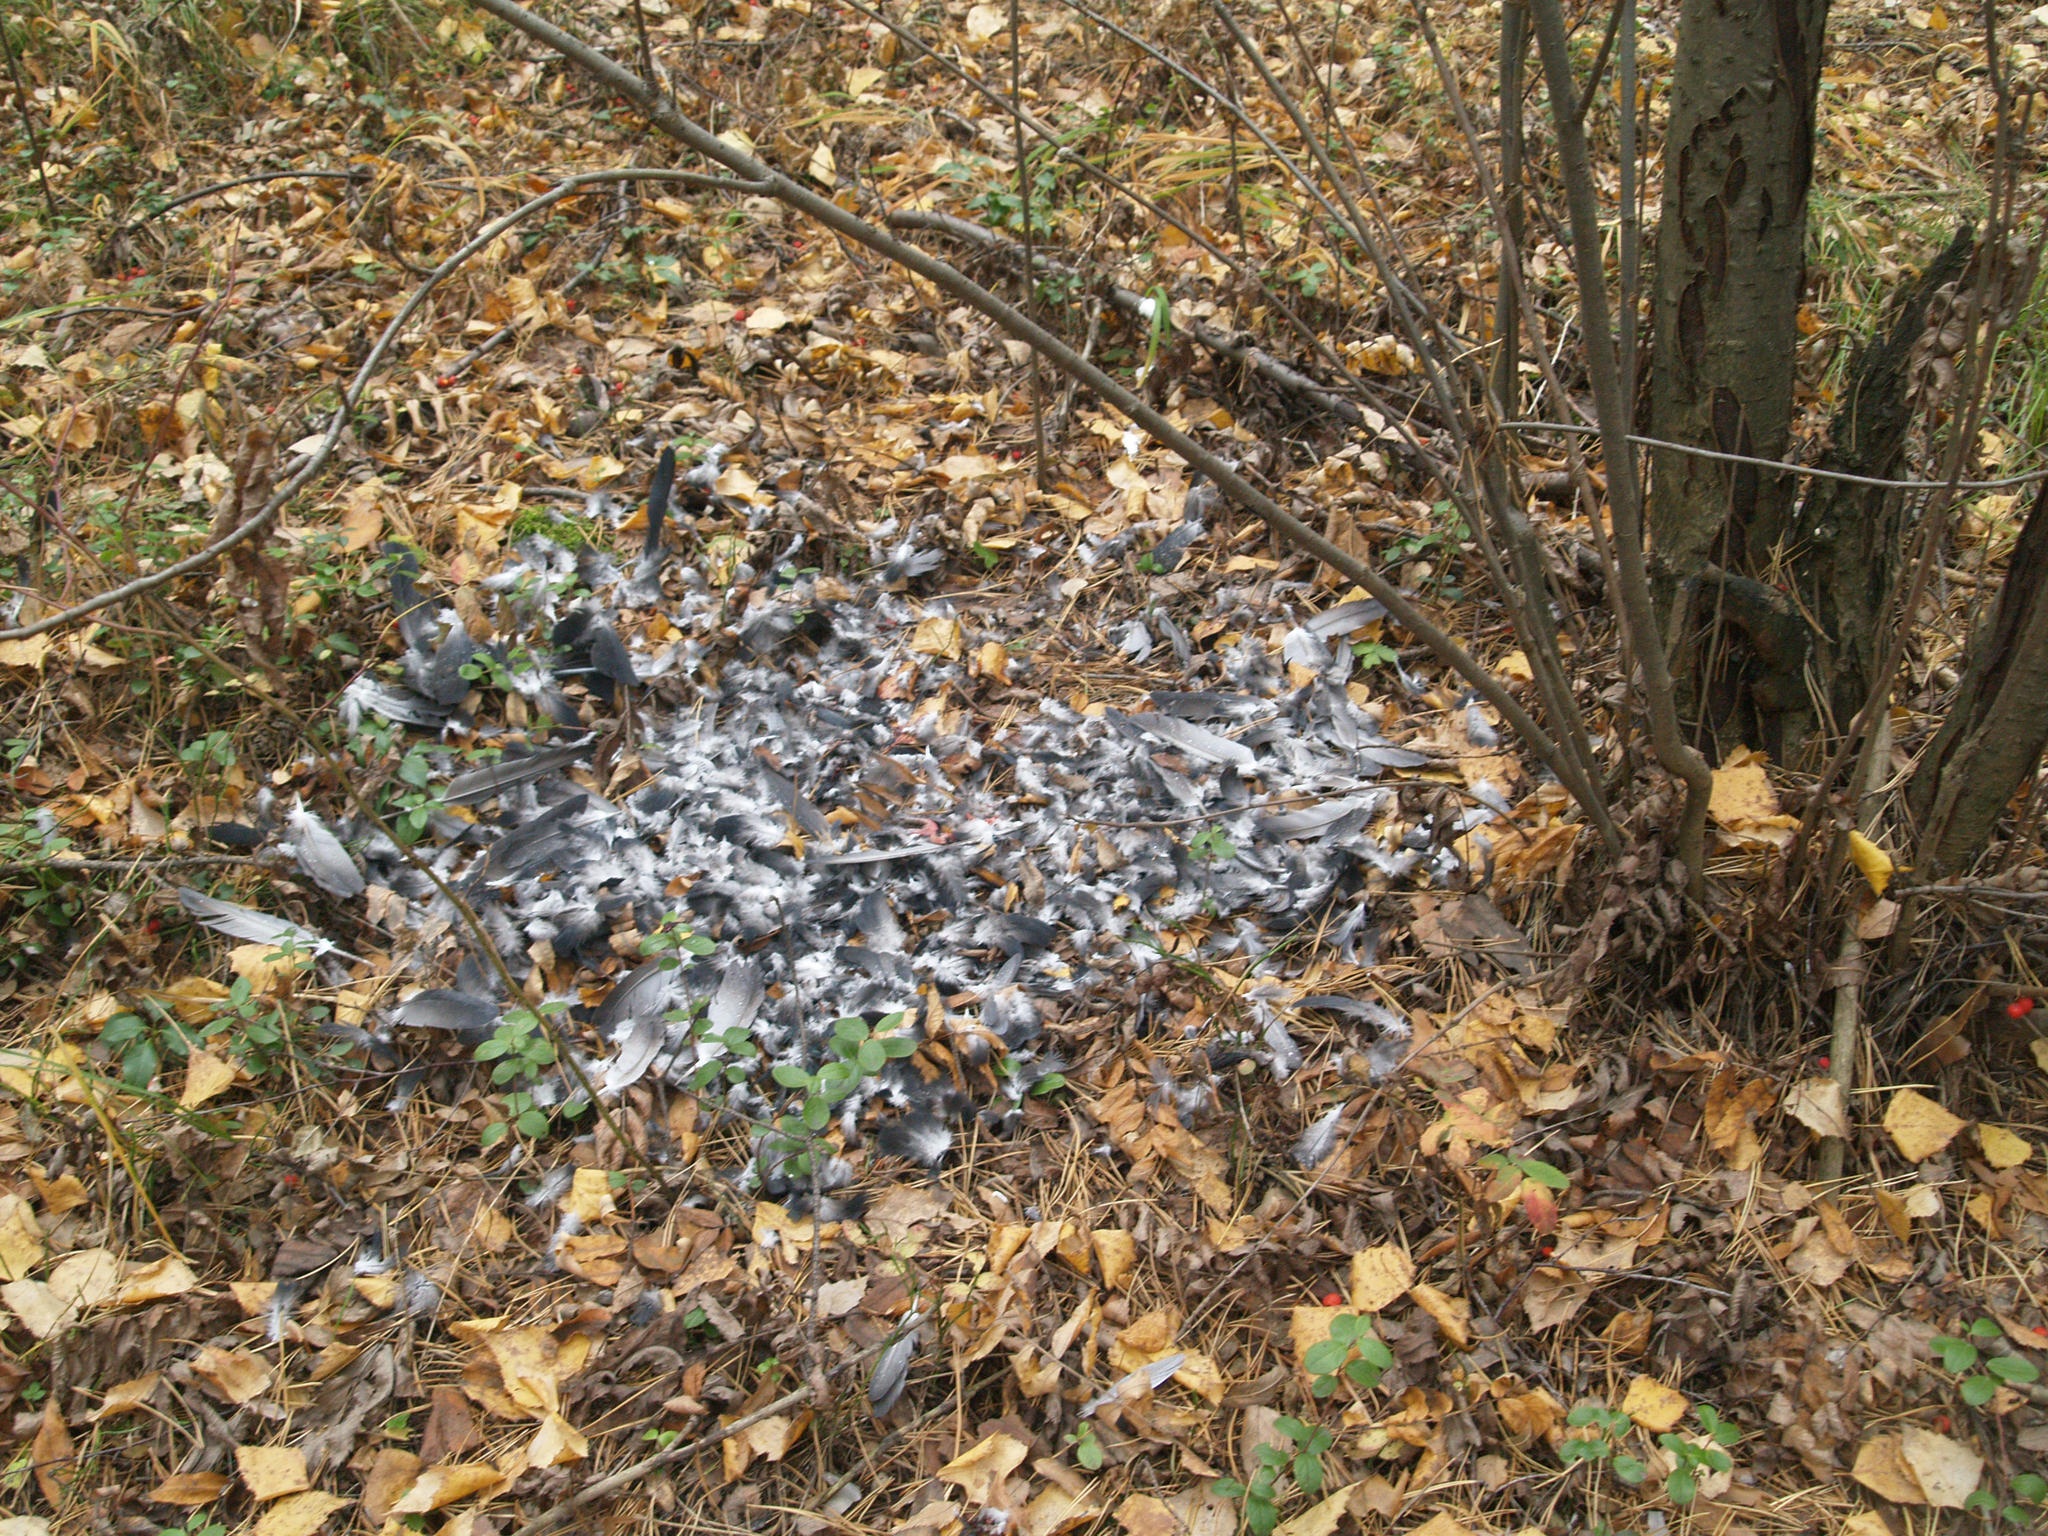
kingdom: Animalia
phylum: Chordata
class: Aves
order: Columbiformes
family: Columbidae
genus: Columba
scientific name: Columba livia
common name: Rock pigeon
